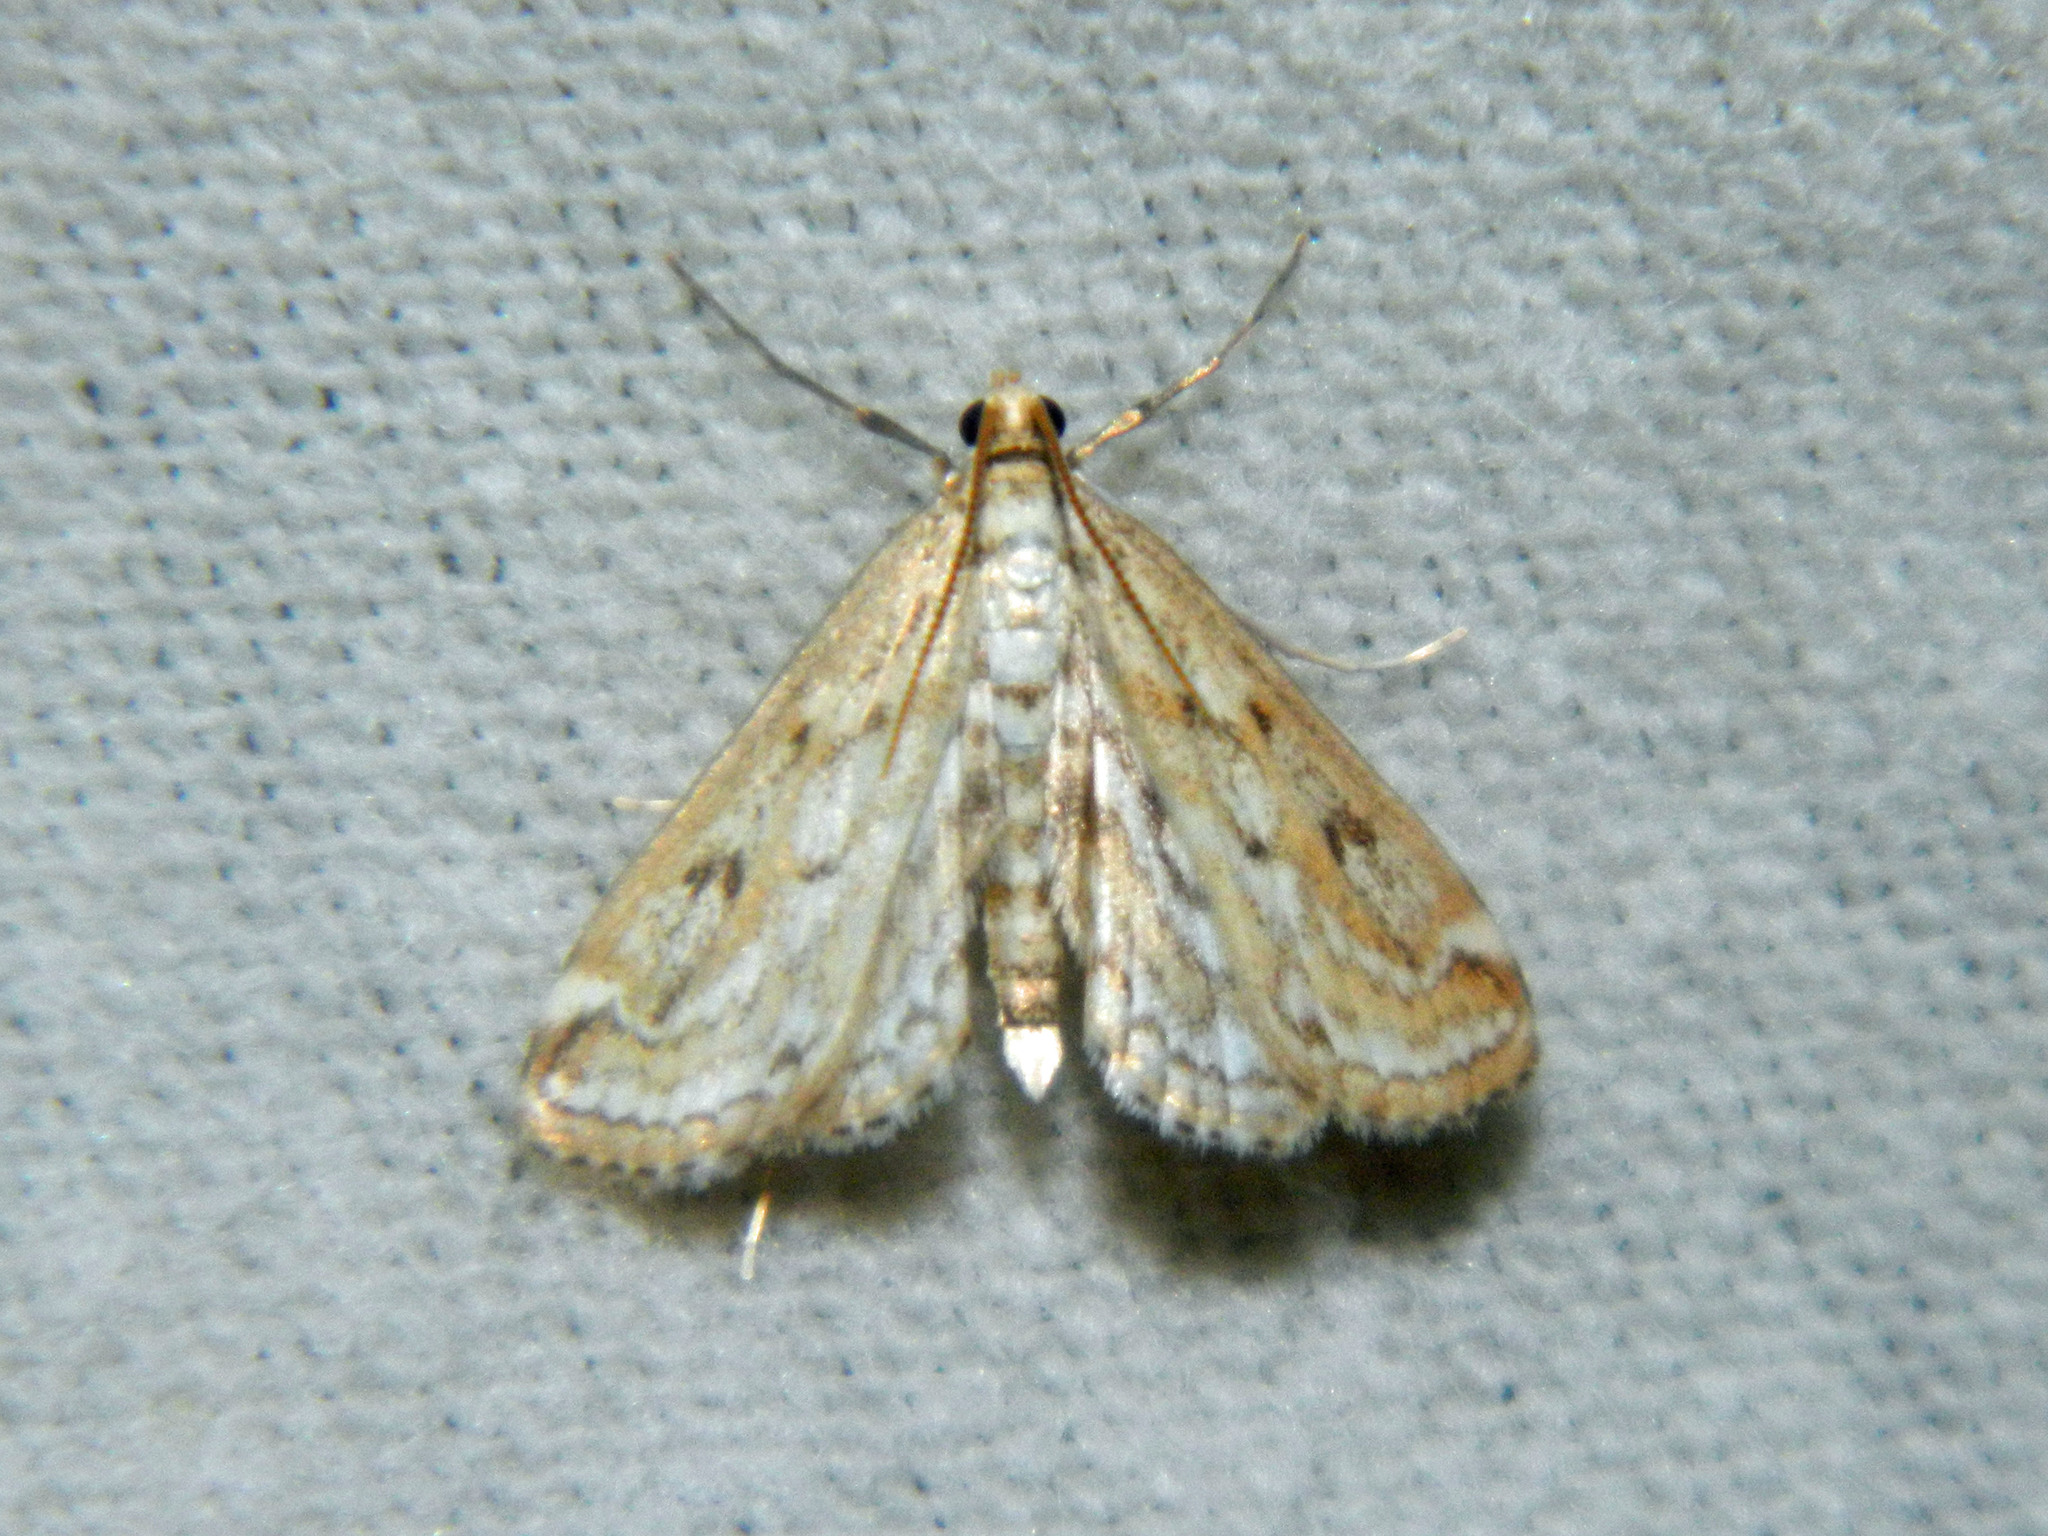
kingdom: Animalia
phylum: Arthropoda
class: Insecta
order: Lepidoptera
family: Crambidae
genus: Parapoynx
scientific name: Parapoynx allionealis
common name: Bladderwort casemaker
